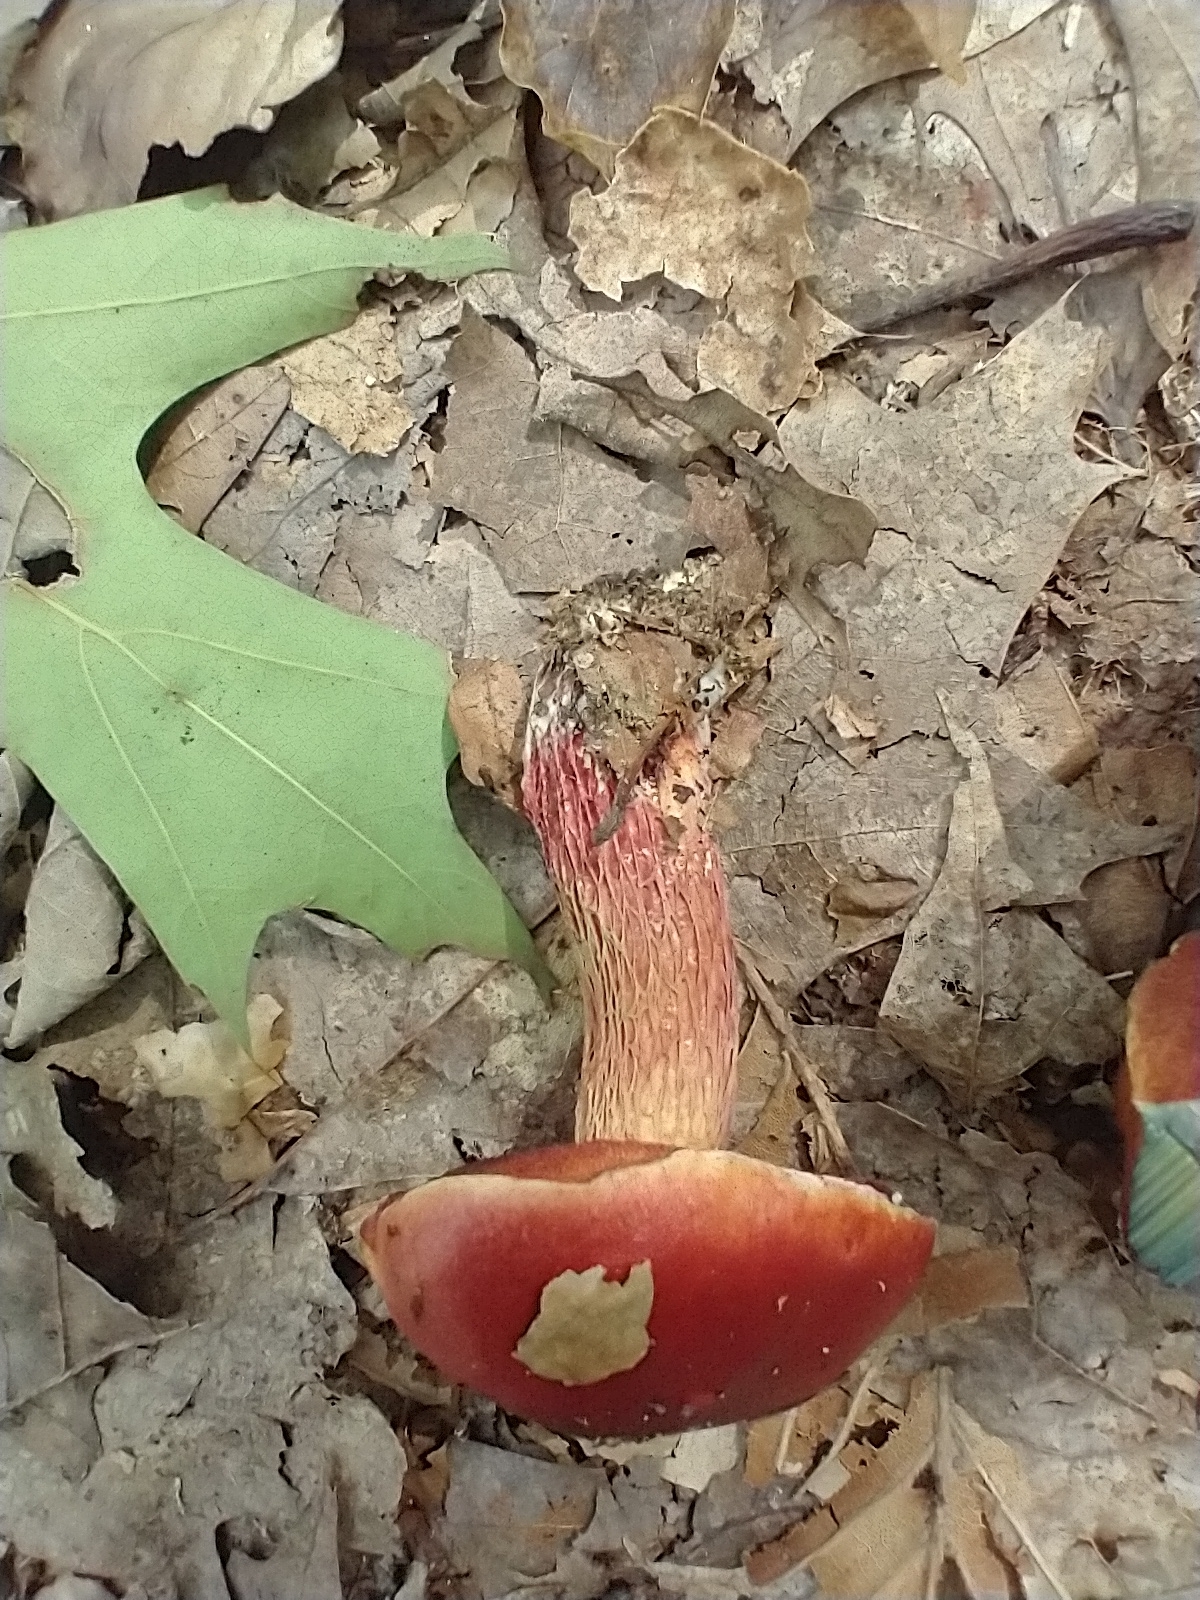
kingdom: Fungi
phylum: Basidiomycota
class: Agaricomycetes
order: Boletales
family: Boletaceae
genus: Butyriboletus
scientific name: Butyriboletus frostii
